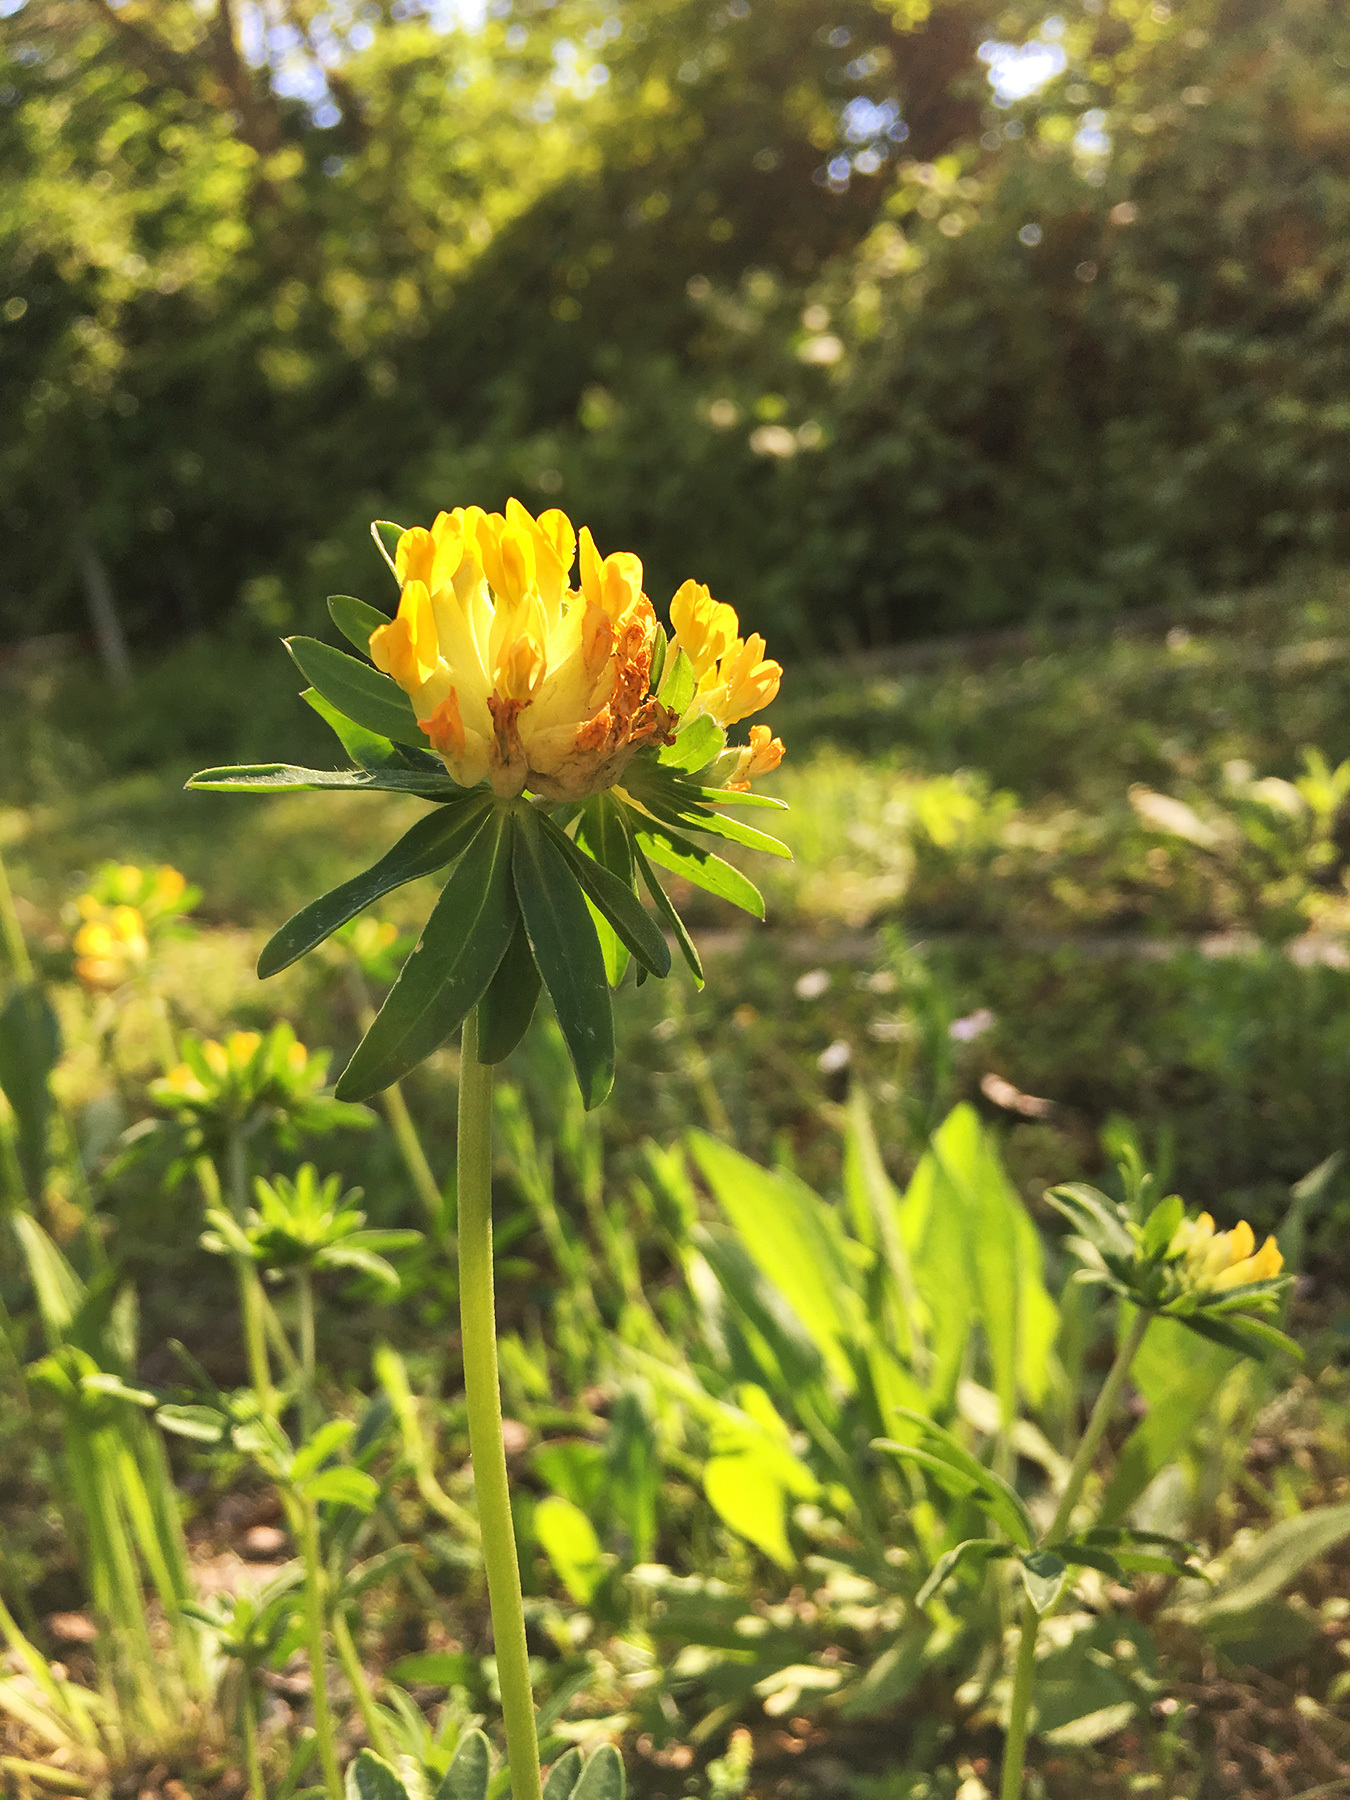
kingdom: Plantae
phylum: Tracheophyta
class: Magnoliopsida
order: Fabales
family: Fabaceae
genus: Anthyllis
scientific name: Anthyllis vulneraria
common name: Kidney vetch
